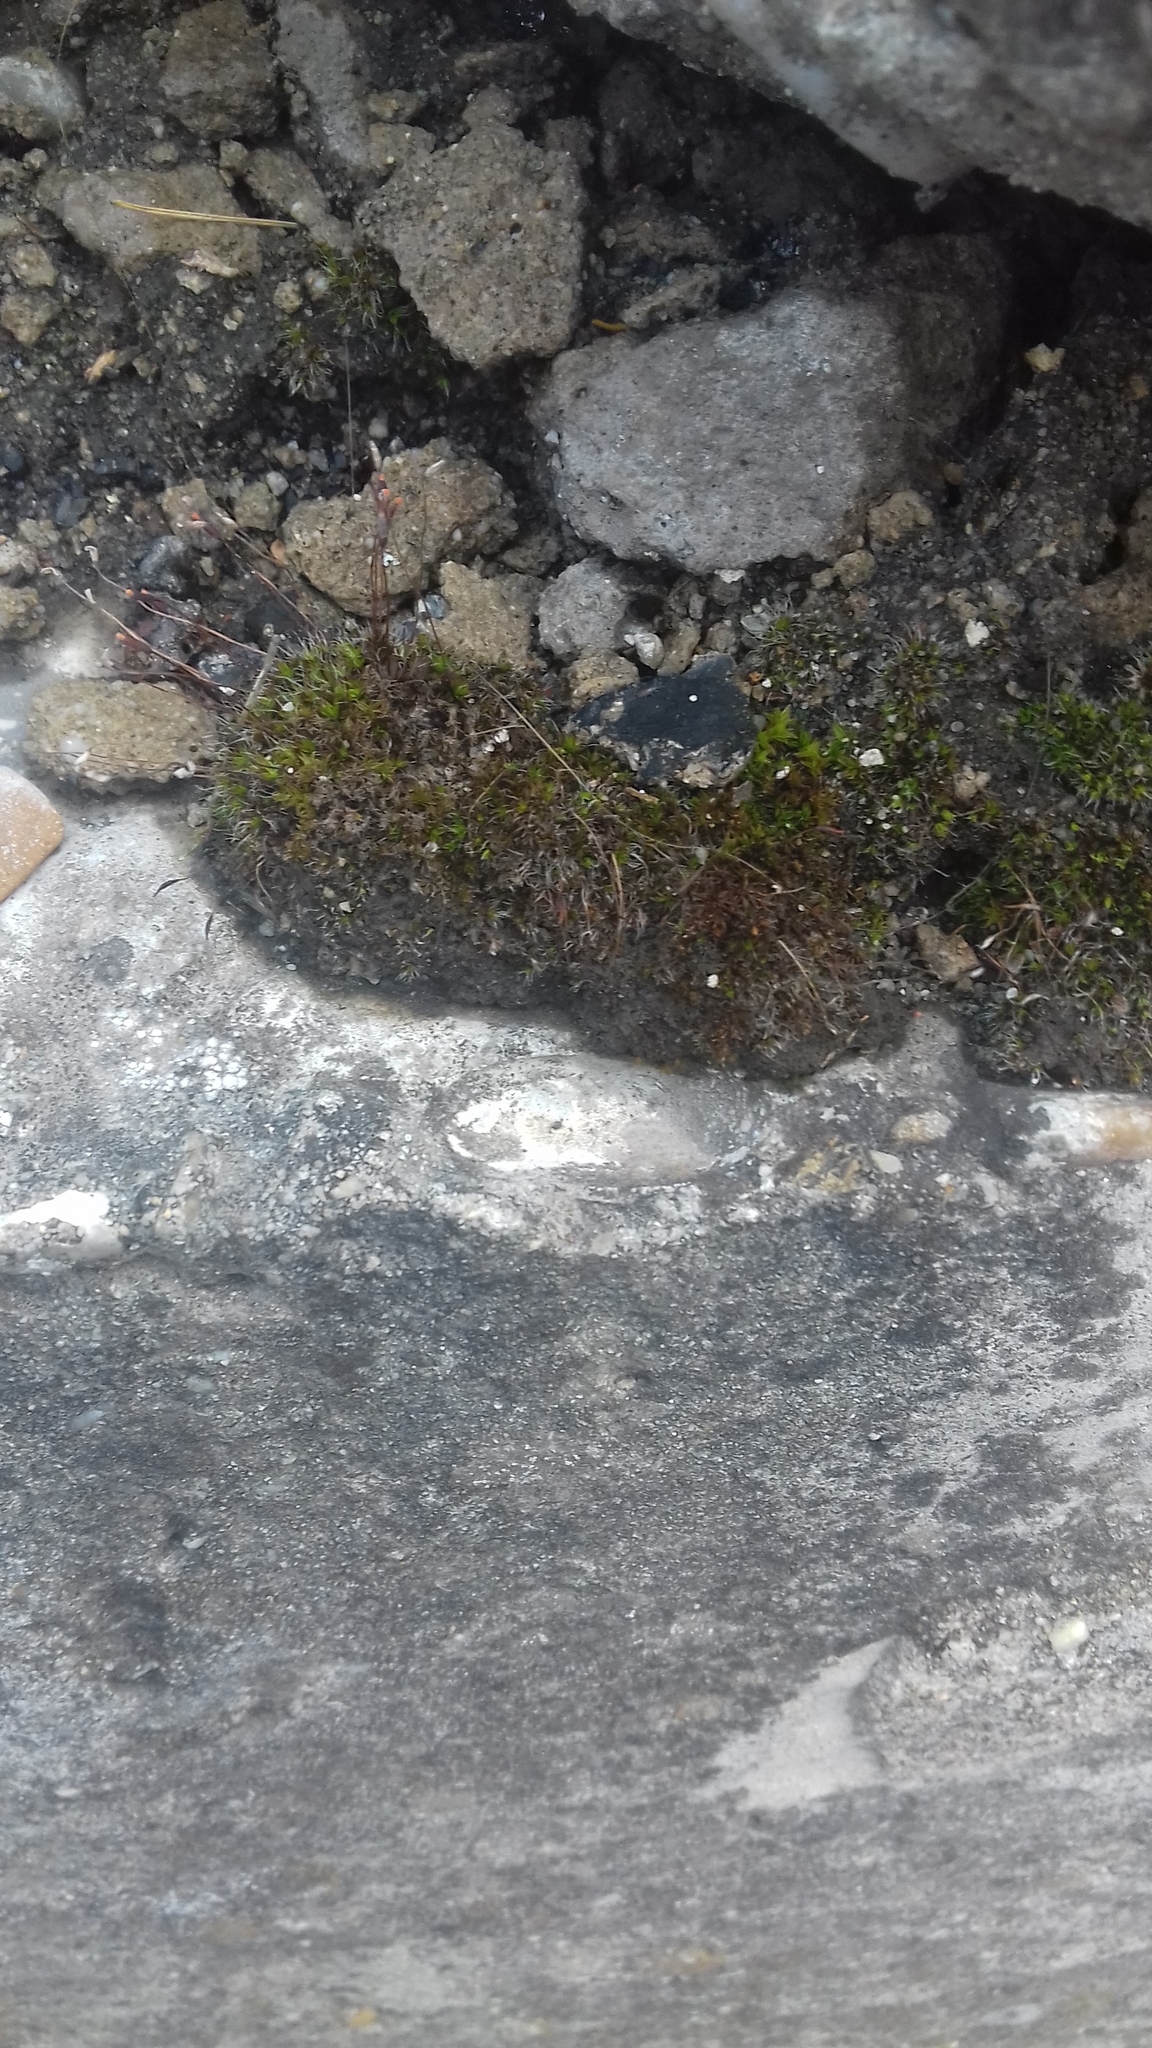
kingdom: Plantae
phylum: Bryophyta
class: Bryopsida
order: Pottiales
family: Pottiaceae
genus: Tortula
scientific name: Tortula muralis
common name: Wall screw-moss
